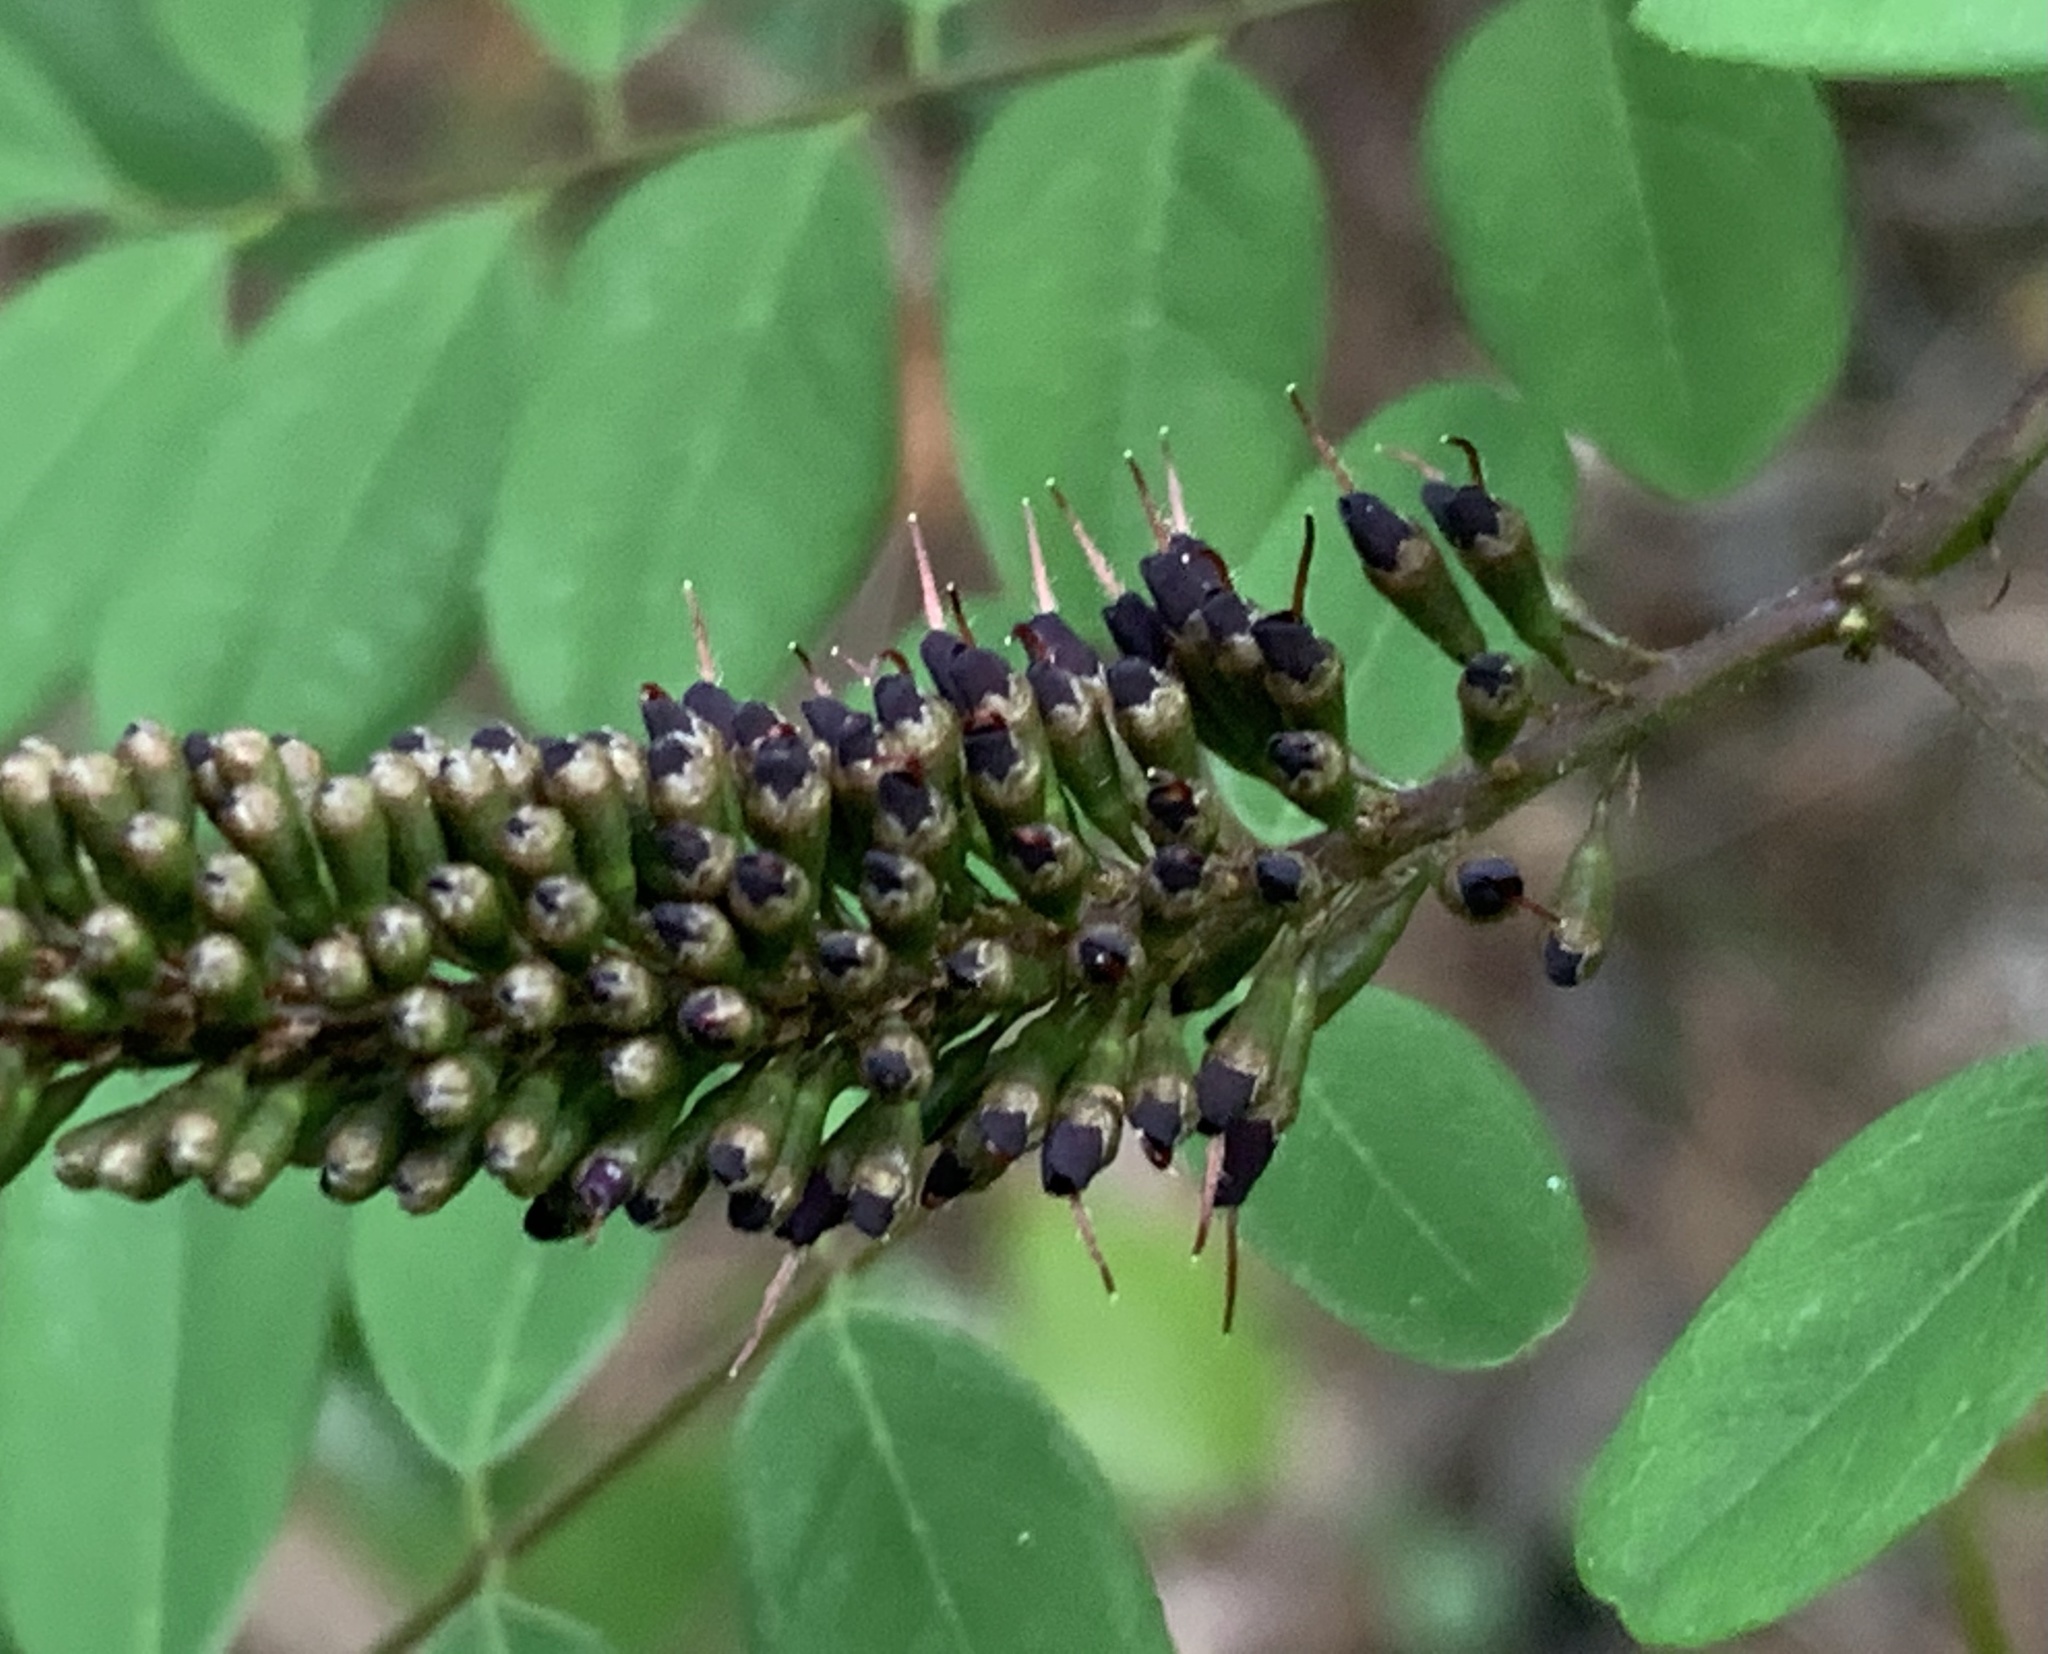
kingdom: Plantae
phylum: Tracheophyta
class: Magnoliopsida
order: Fabales
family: Fabaceae
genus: Amorpha
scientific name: Amorpha fruticosa
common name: False indigo
